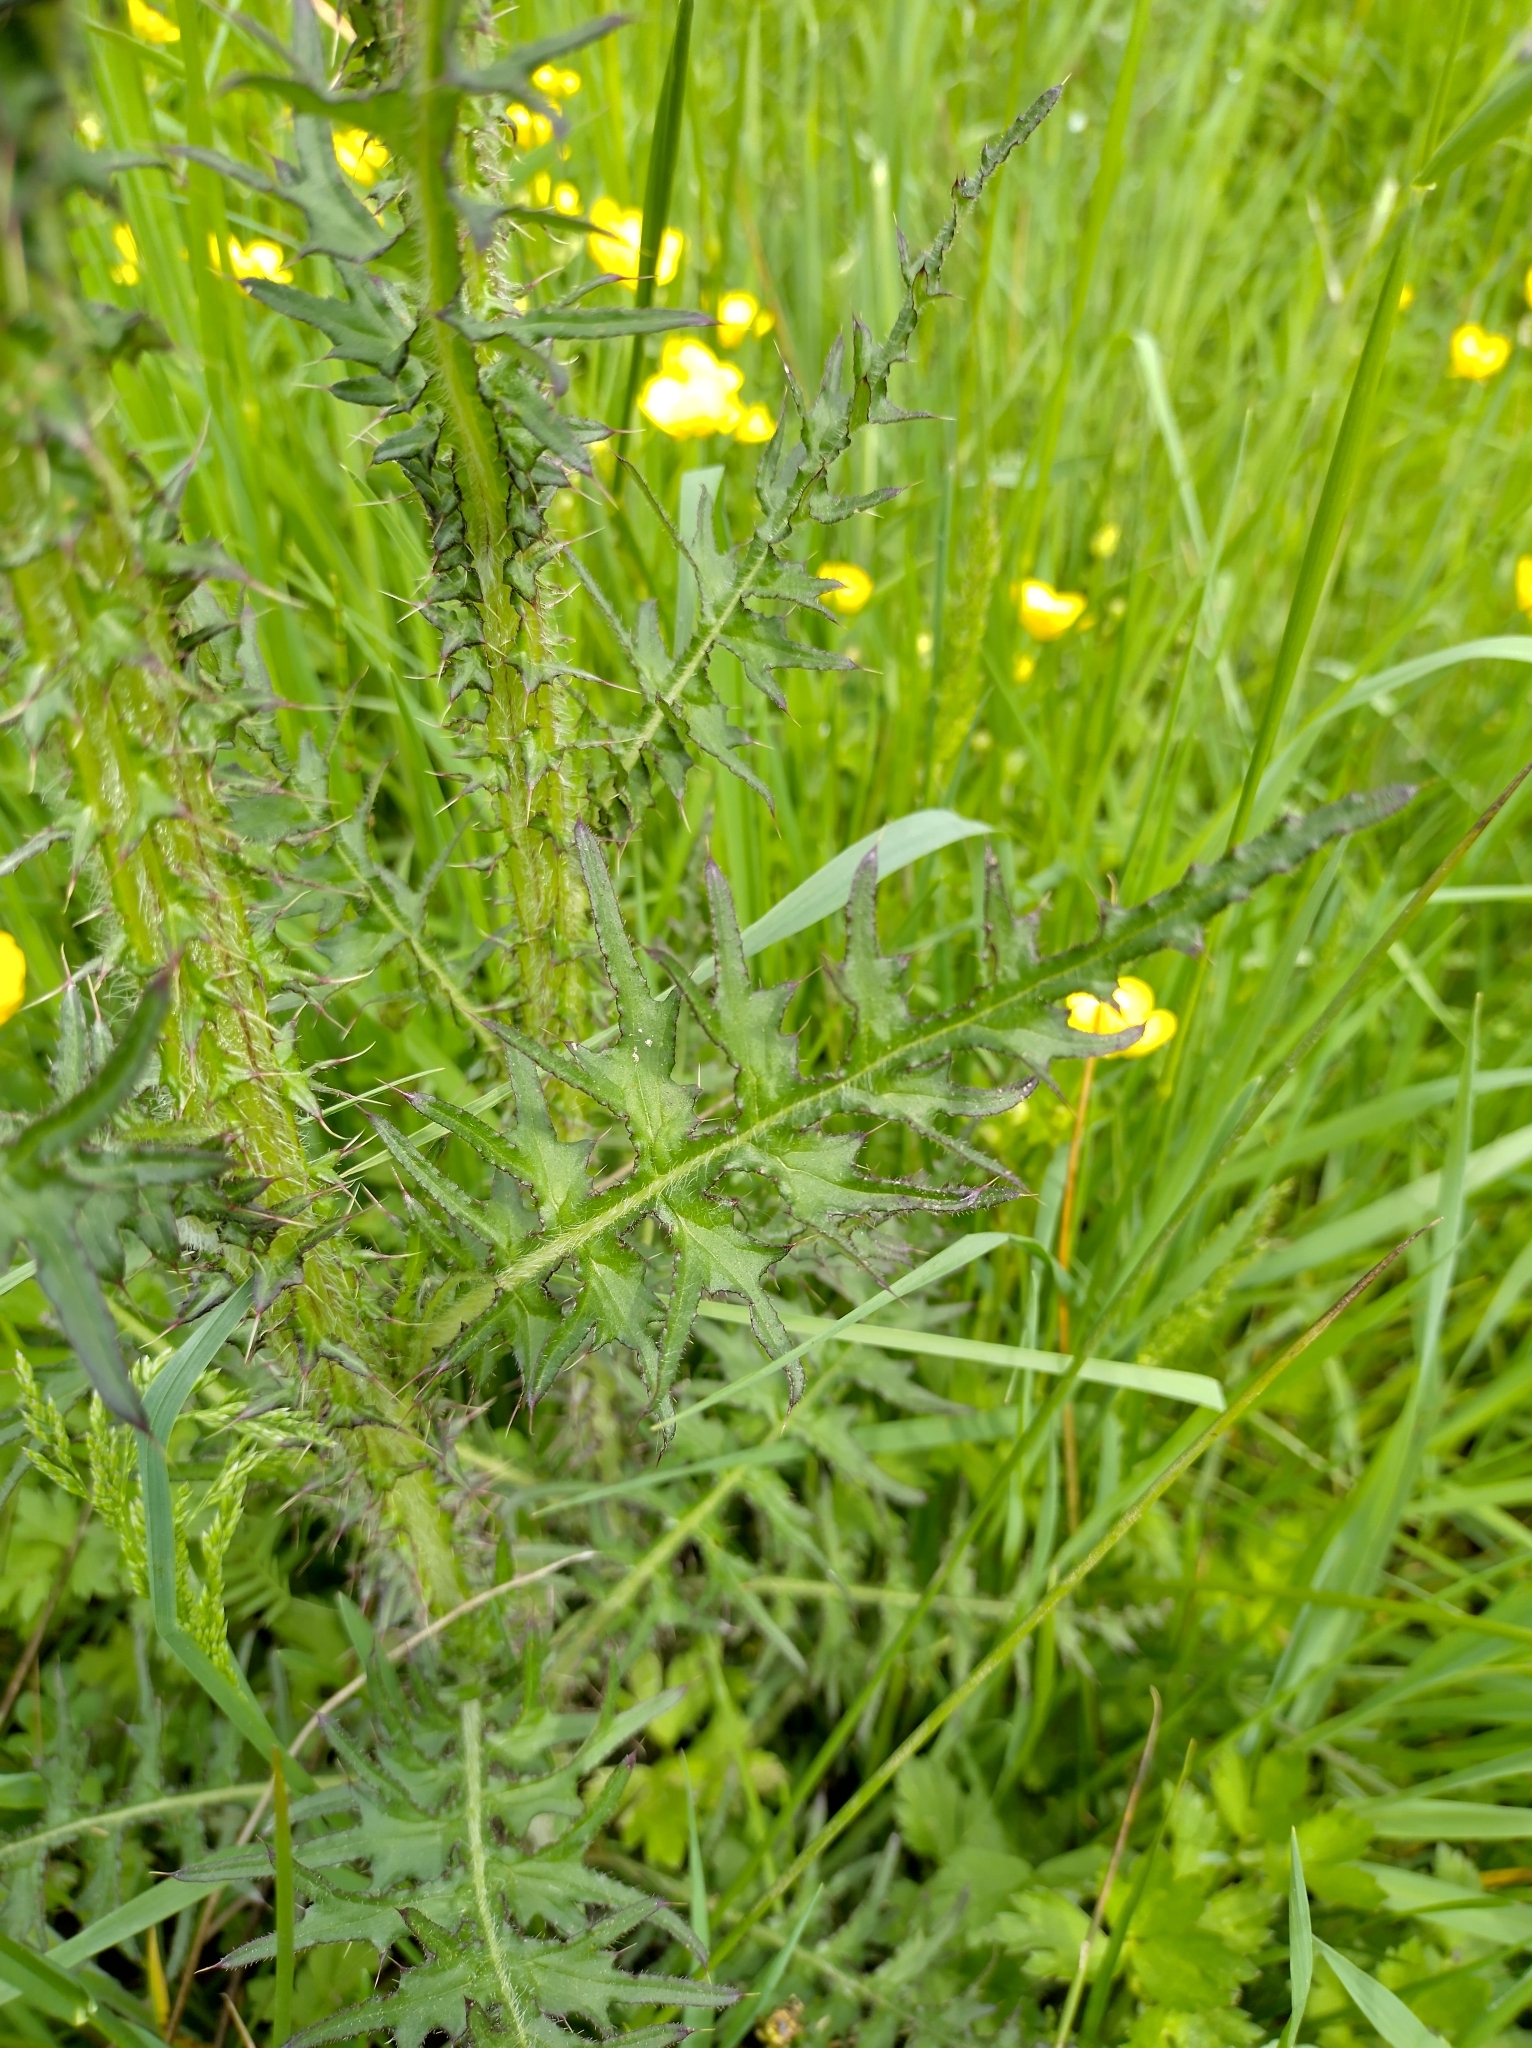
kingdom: Plantae
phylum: Tracheophyta
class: Magnoliopsida
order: Asterales
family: Asteraceae
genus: Cirsium
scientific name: Cirsium palustre
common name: Marsh thistle
